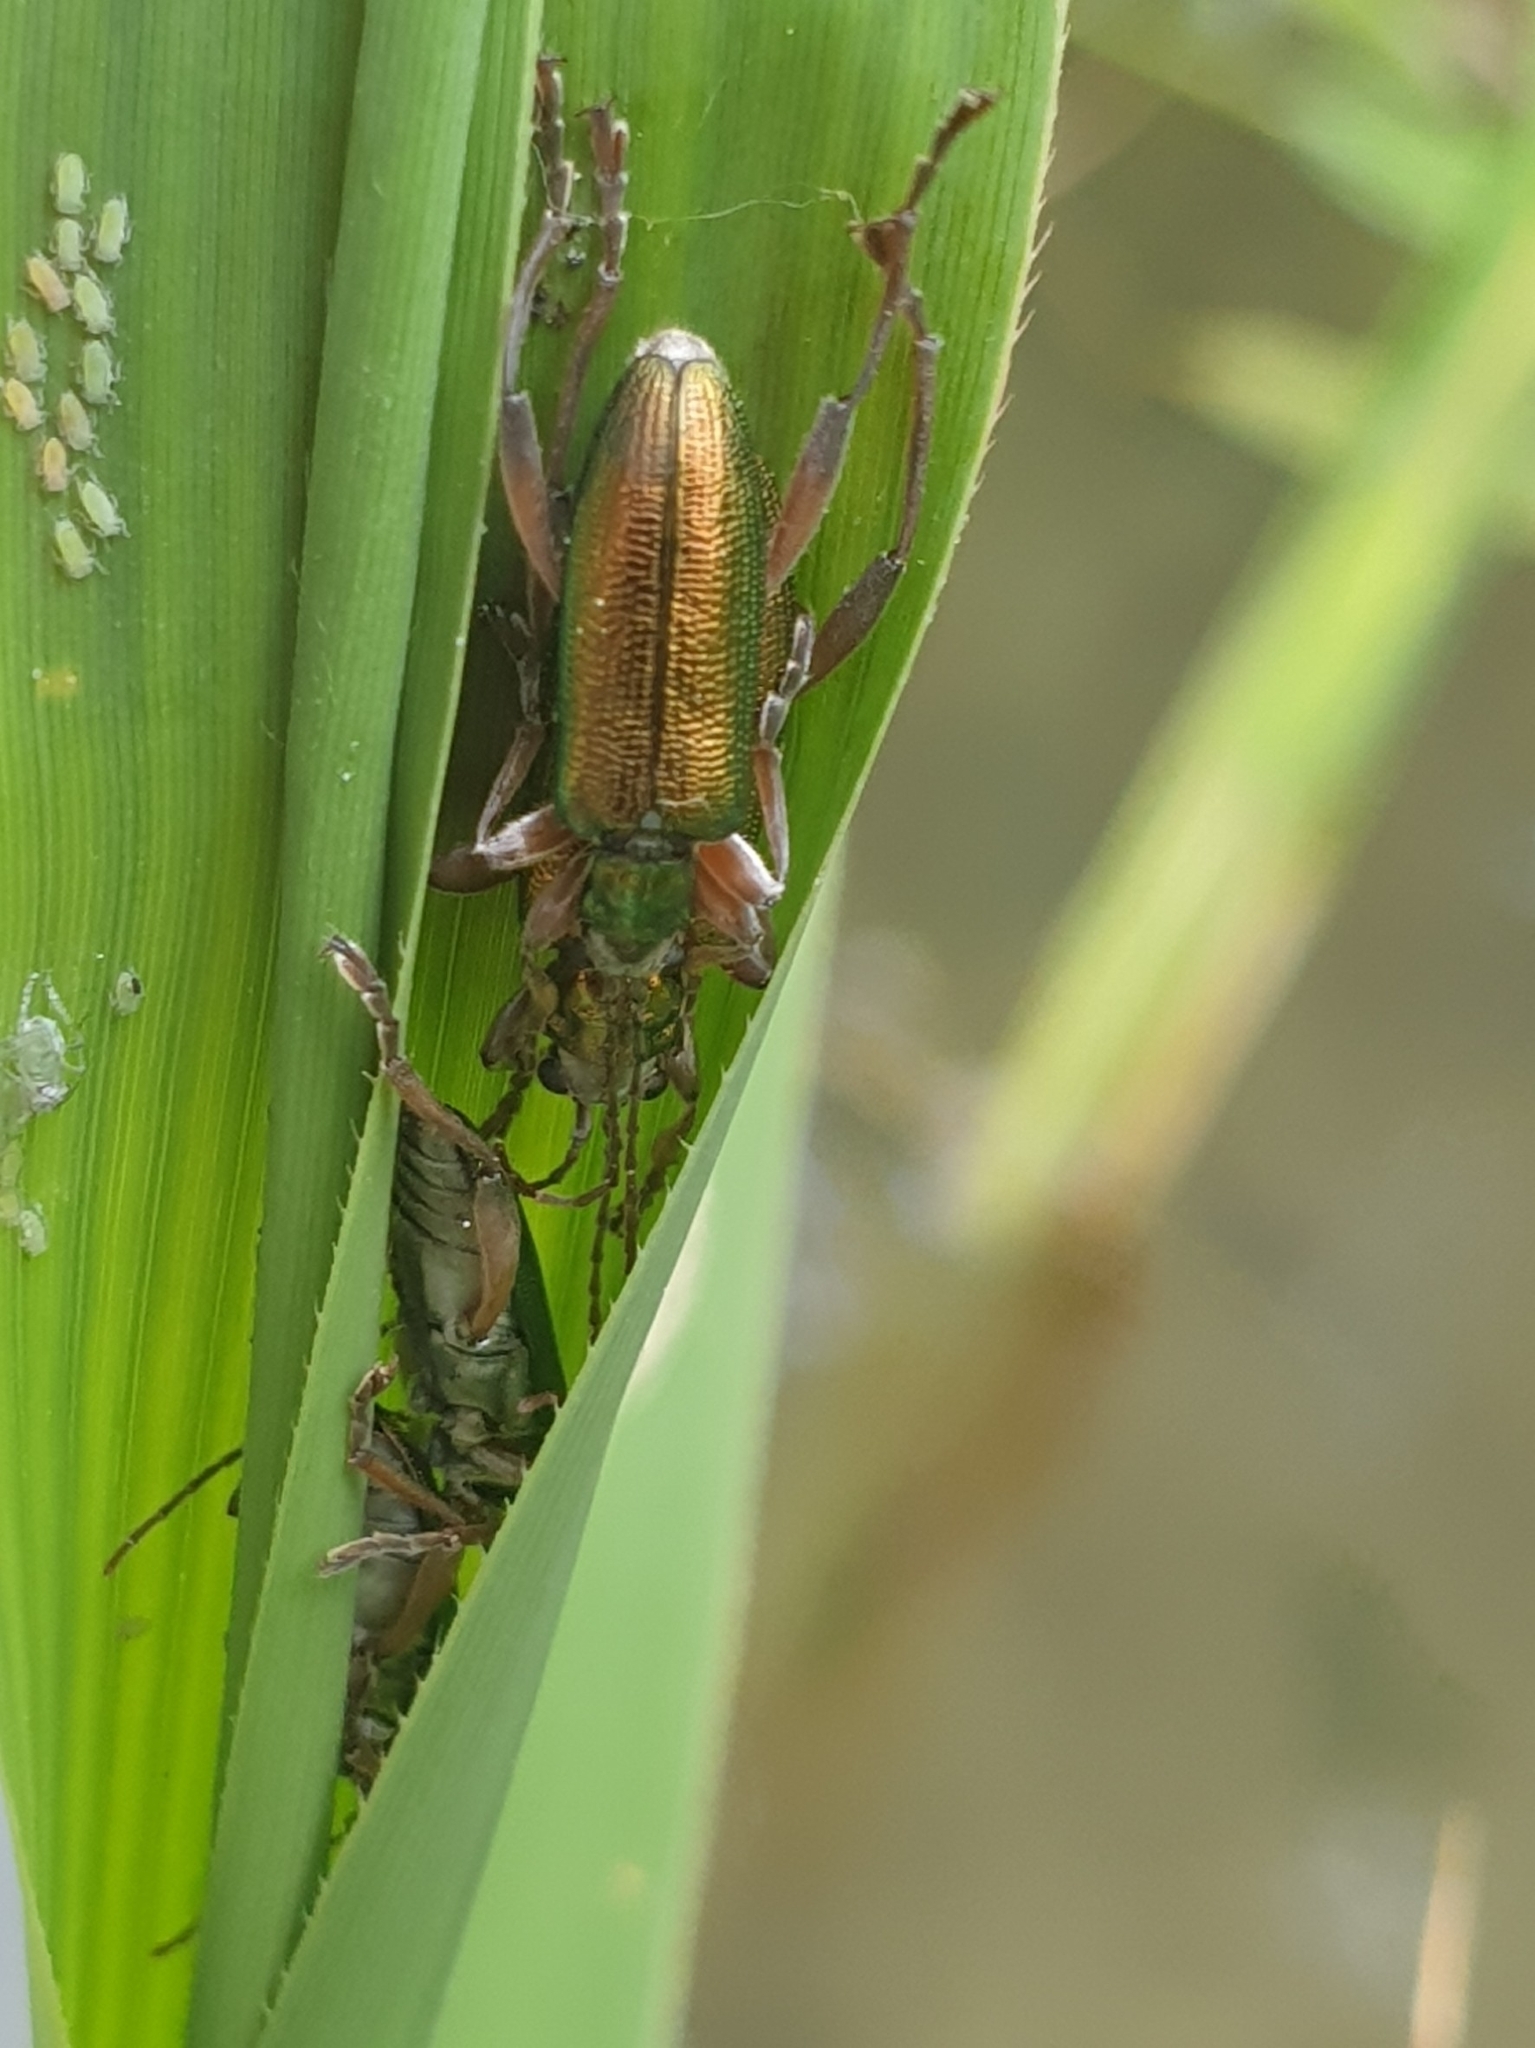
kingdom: Animalia
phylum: Arthropoda
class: Insecta
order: Coleoptera
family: Chrysomelidae
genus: Donacia
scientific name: Donacia clavipes
